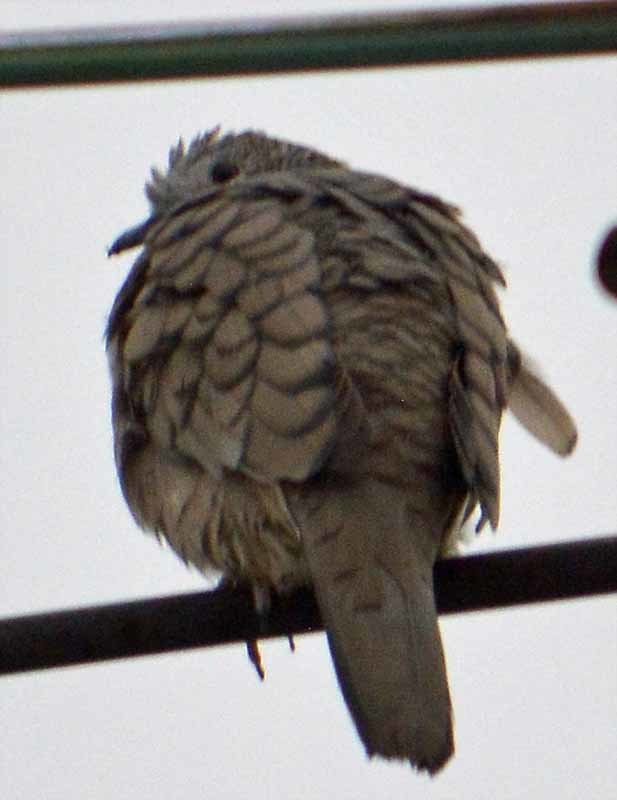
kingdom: Animalia
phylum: Chordata
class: Aves
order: Columbiformes
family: Columbidae
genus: Columbina
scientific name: Columbina inca
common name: Inca dove
